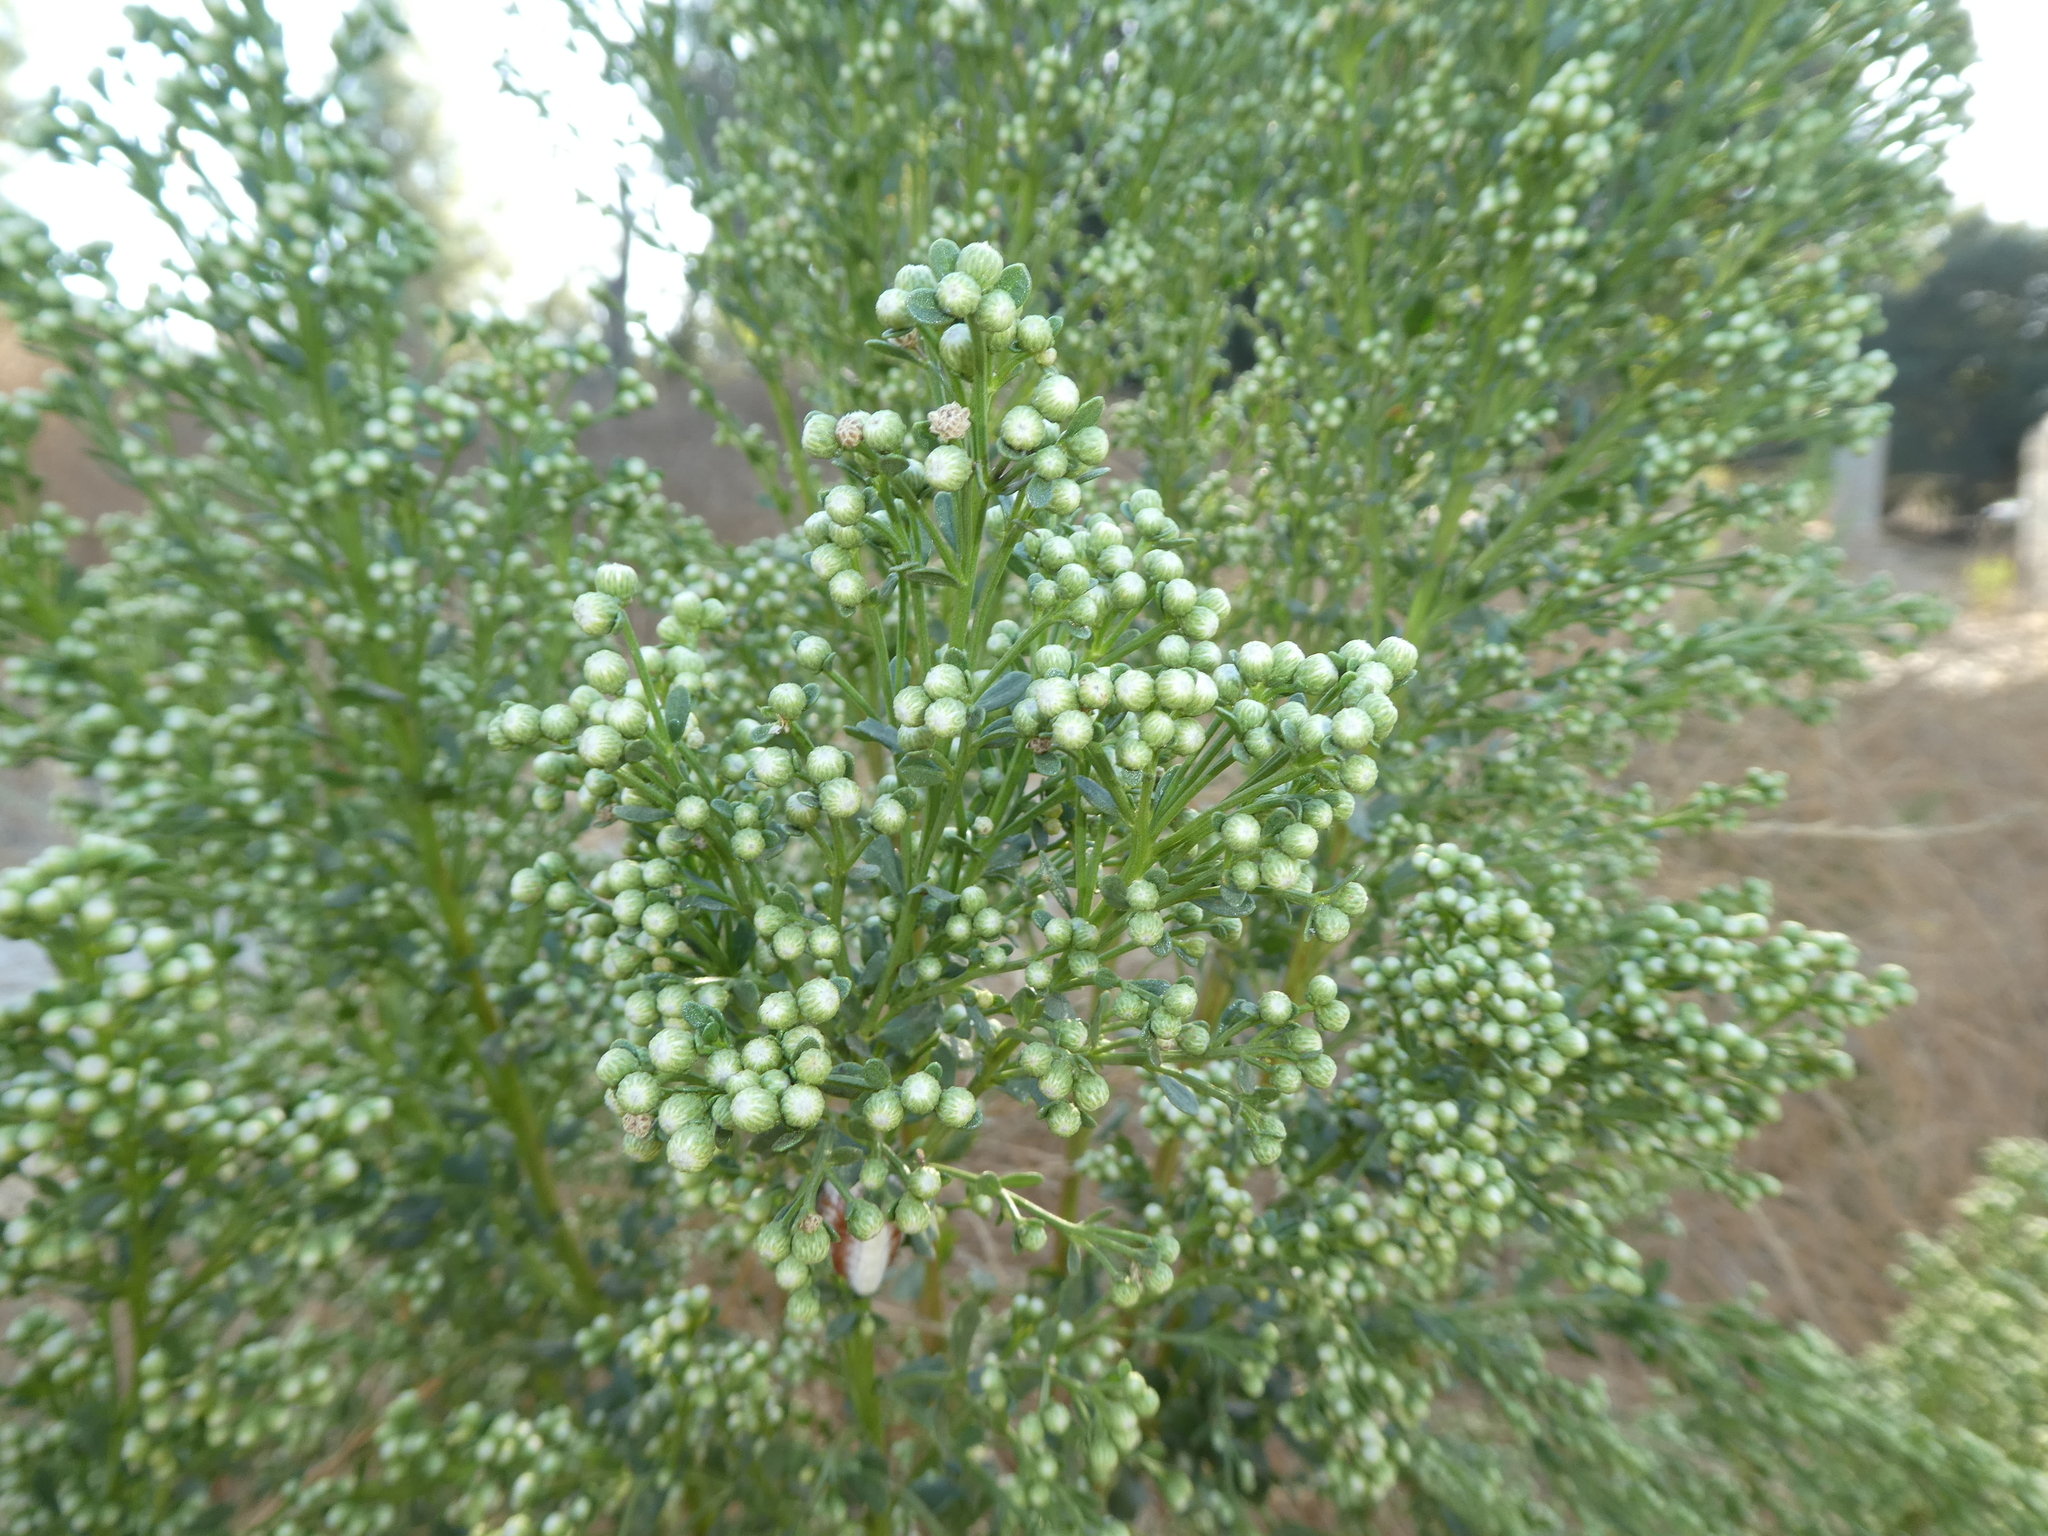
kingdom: Plantae
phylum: Tracheophyta
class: Magnoliopsida
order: Asterales
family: Asteraceae
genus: Baccharis
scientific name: Baccharis pilularis
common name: Coyotebrush
